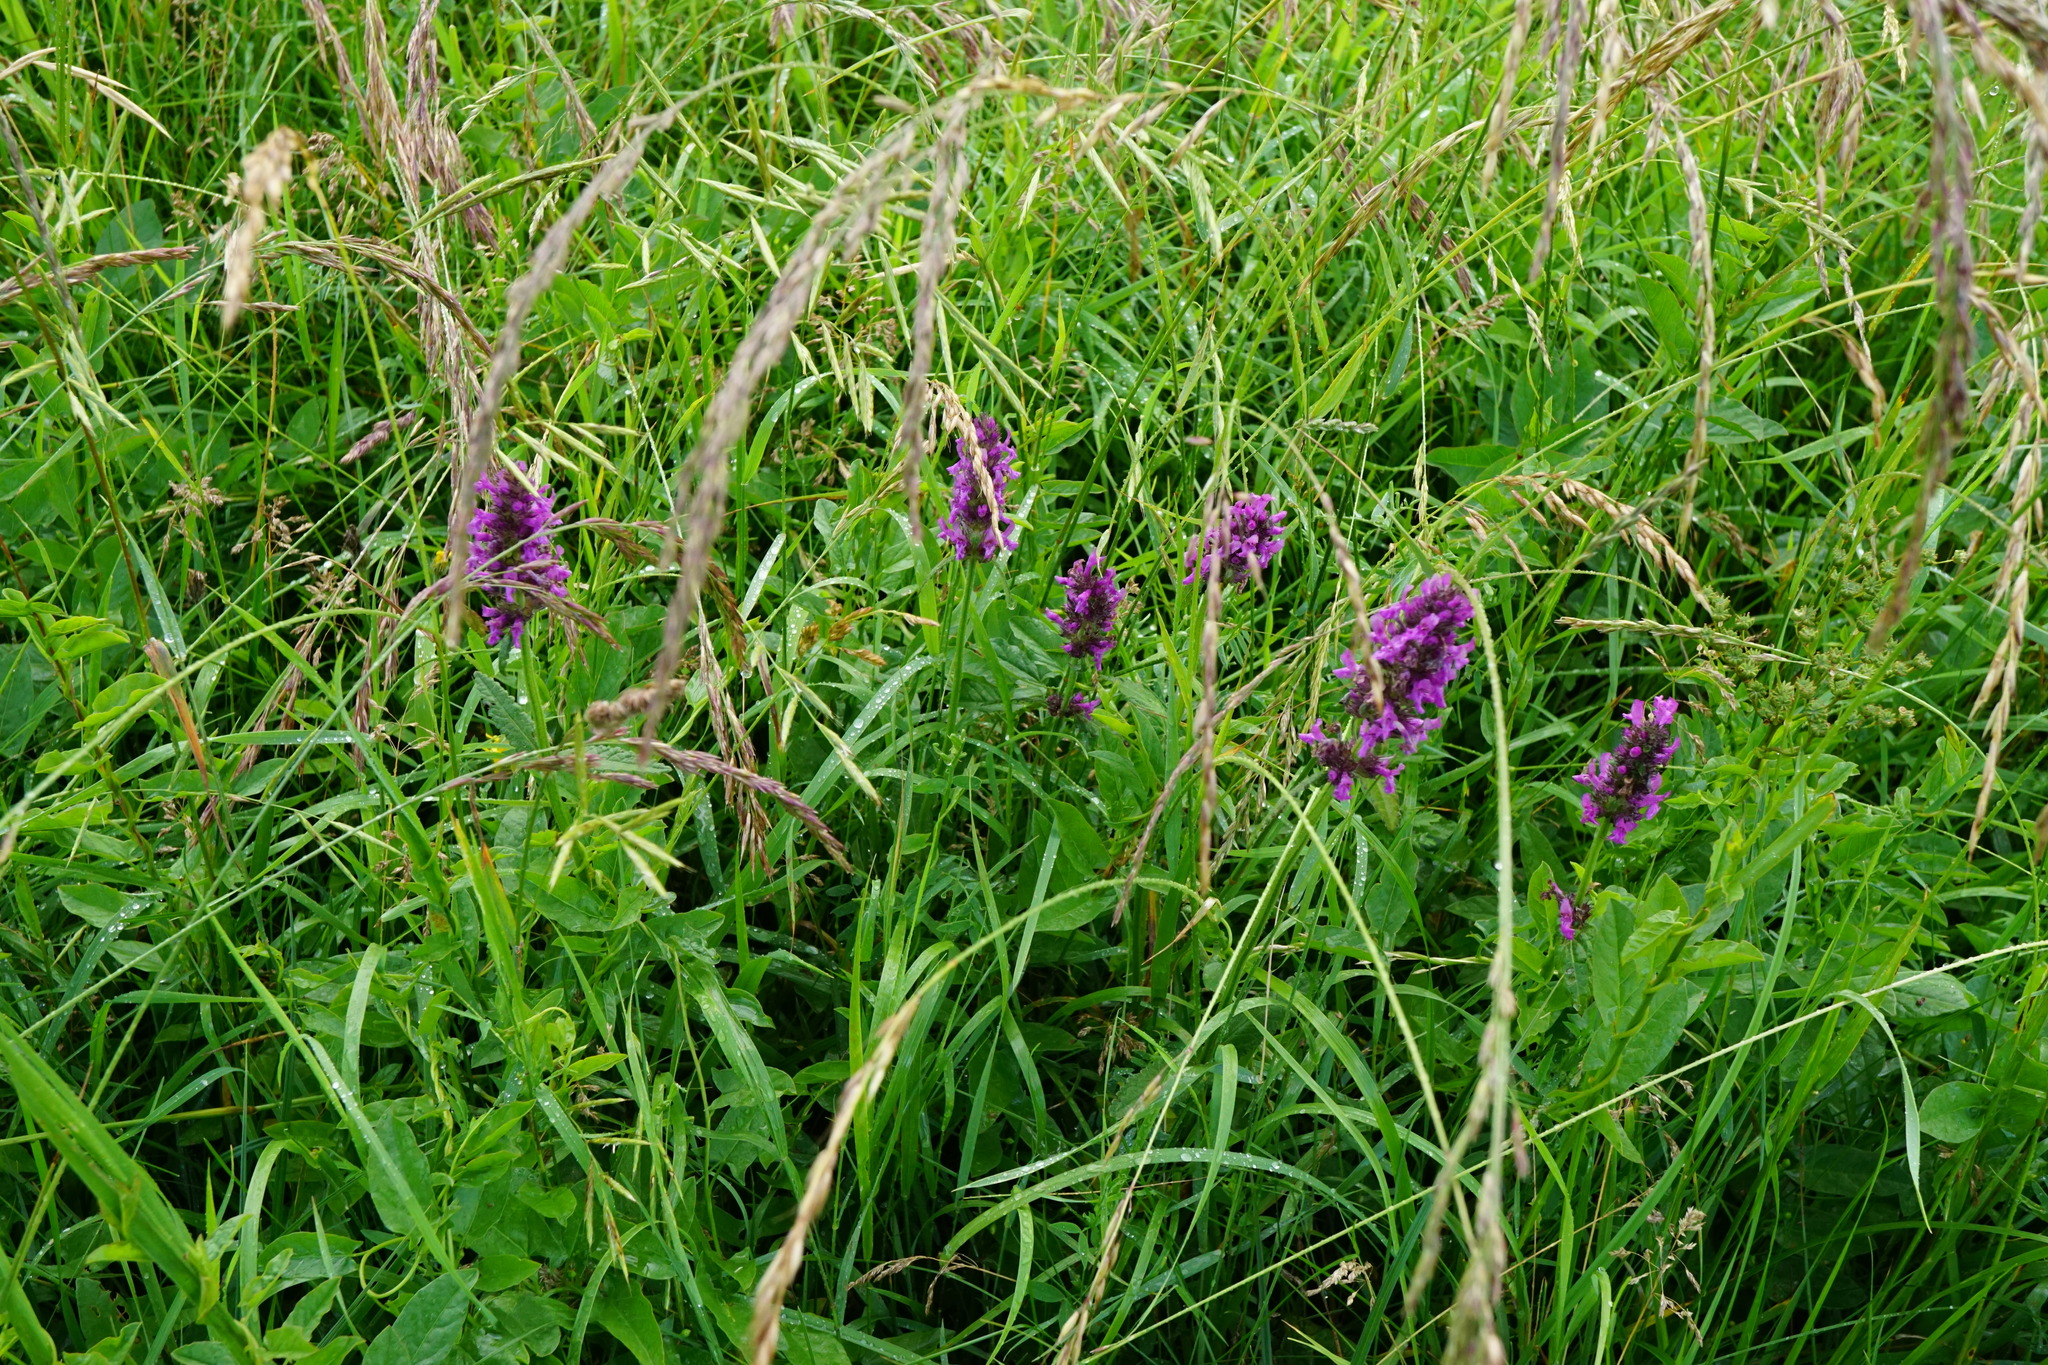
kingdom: Plantae
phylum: Tracheophyta
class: Magnoliopsida
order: Lamiales
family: Lamiaceae
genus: Betonica
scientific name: Betonica officinalis
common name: Bishop's-wort
